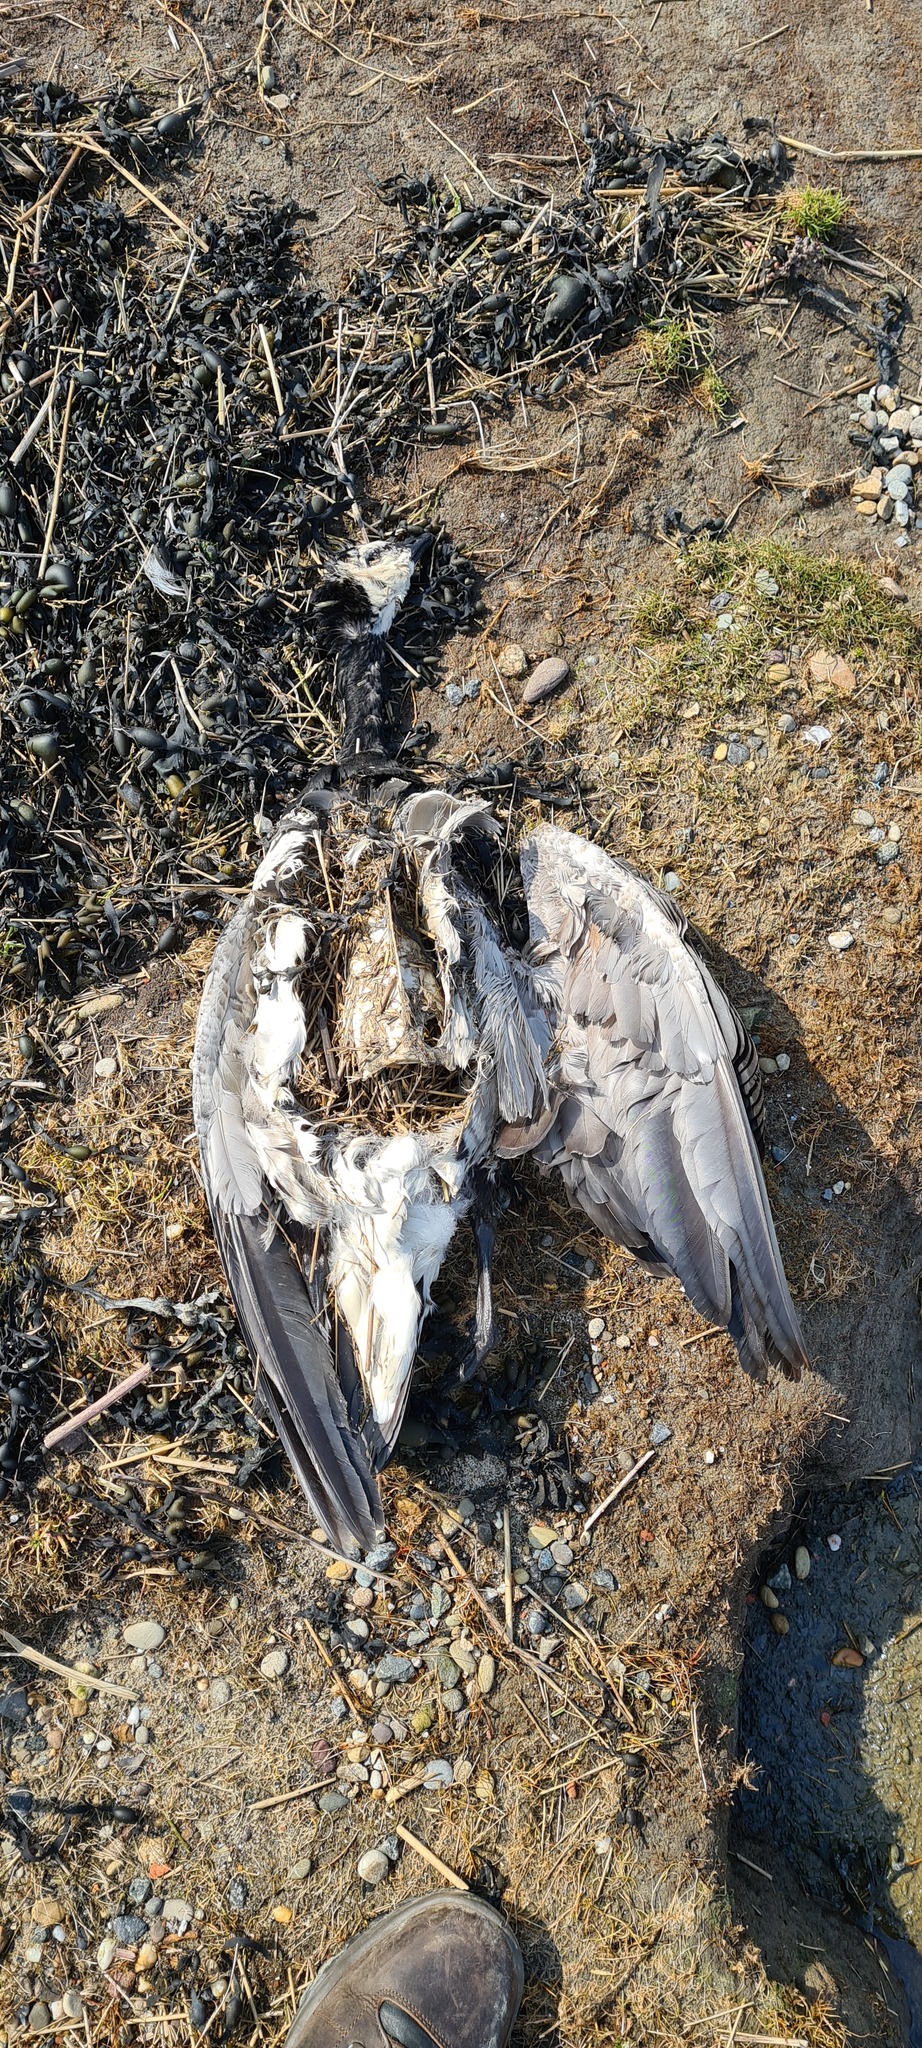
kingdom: Animalia
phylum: Chordata
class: Aves
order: Anseriformes
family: Anatidae
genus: Branta
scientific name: Branta leucopsis
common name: Barnacle goose
